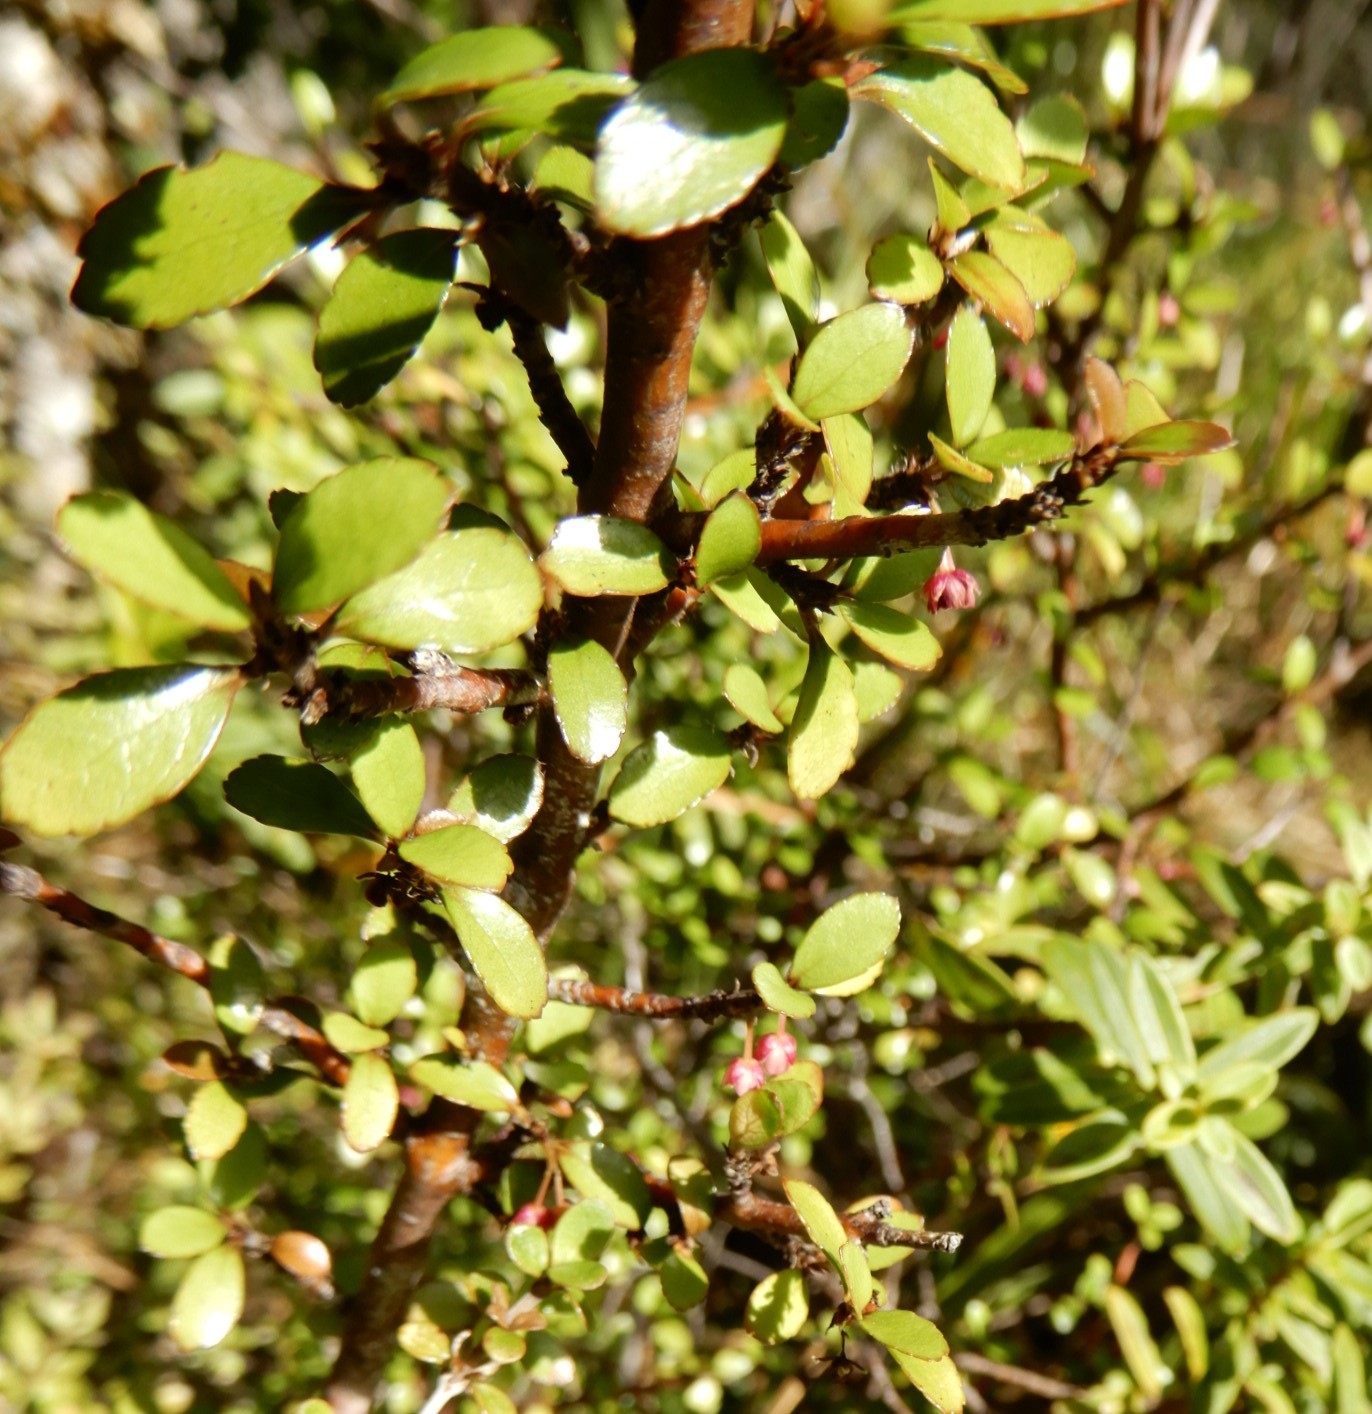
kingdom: Plantae
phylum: Tracheophyta
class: Magnoliopsida
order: Oxalidales
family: Elaeocarpaceae
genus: Aristotelia
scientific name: Aristotelia fruticosa
